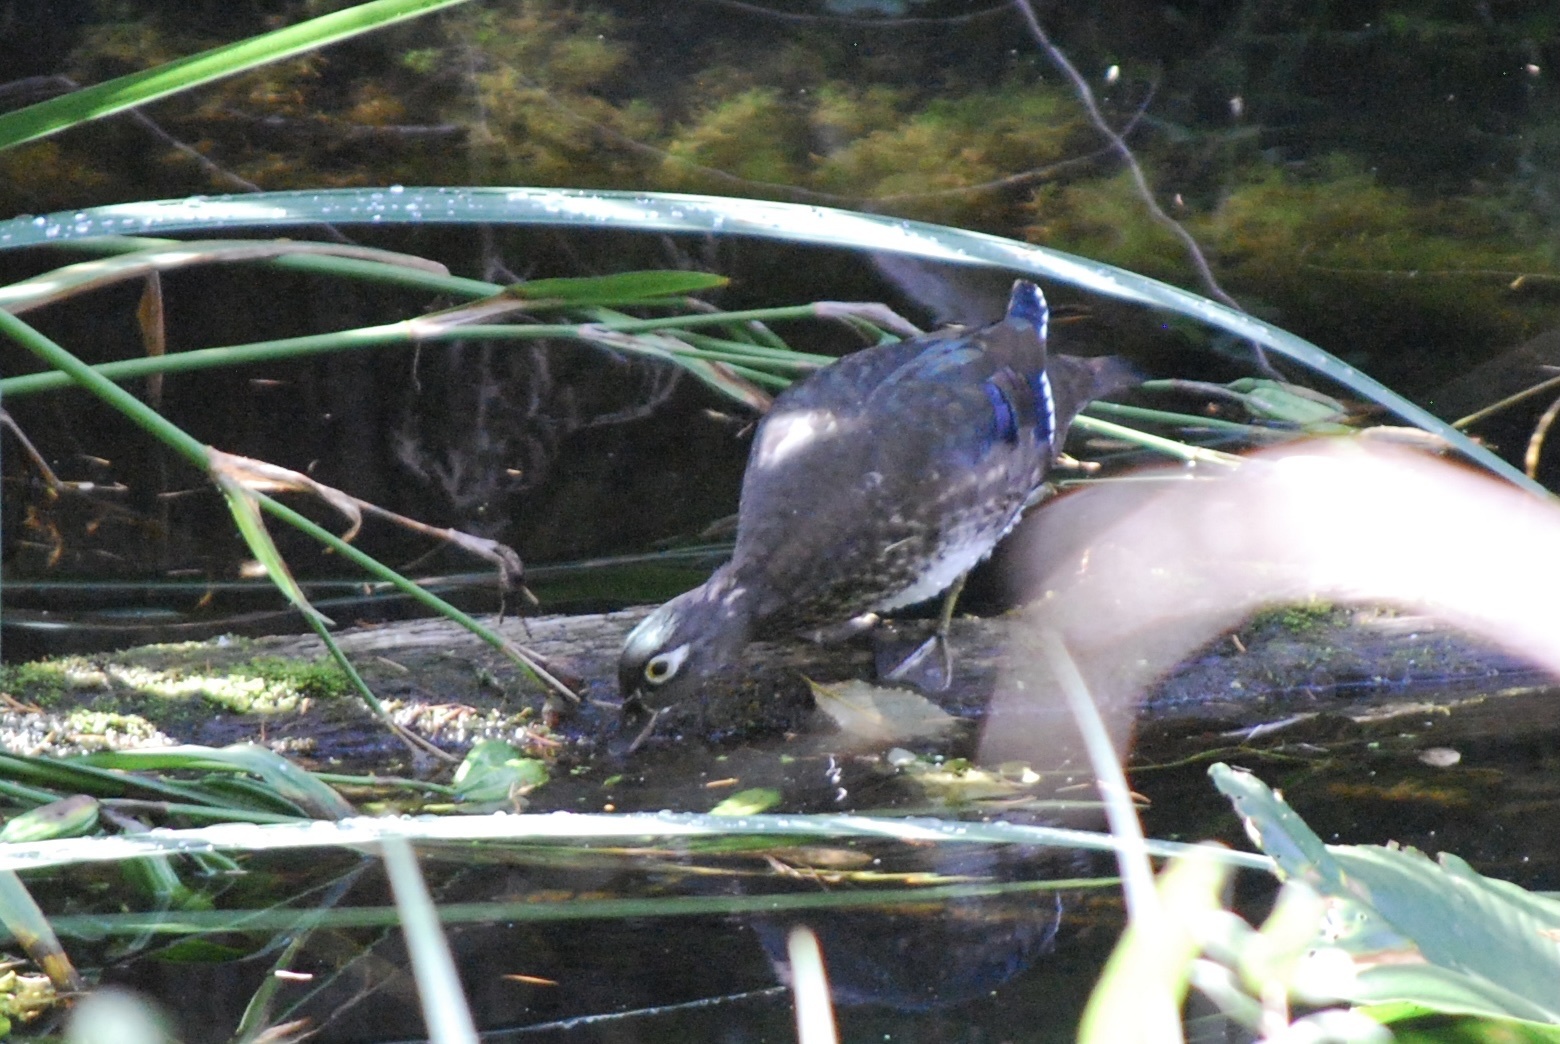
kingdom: Animalia
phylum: Chordata
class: Aves
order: Anseriformes
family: Anatidae
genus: Aix
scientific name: Aix sponsa
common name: Wood duck
